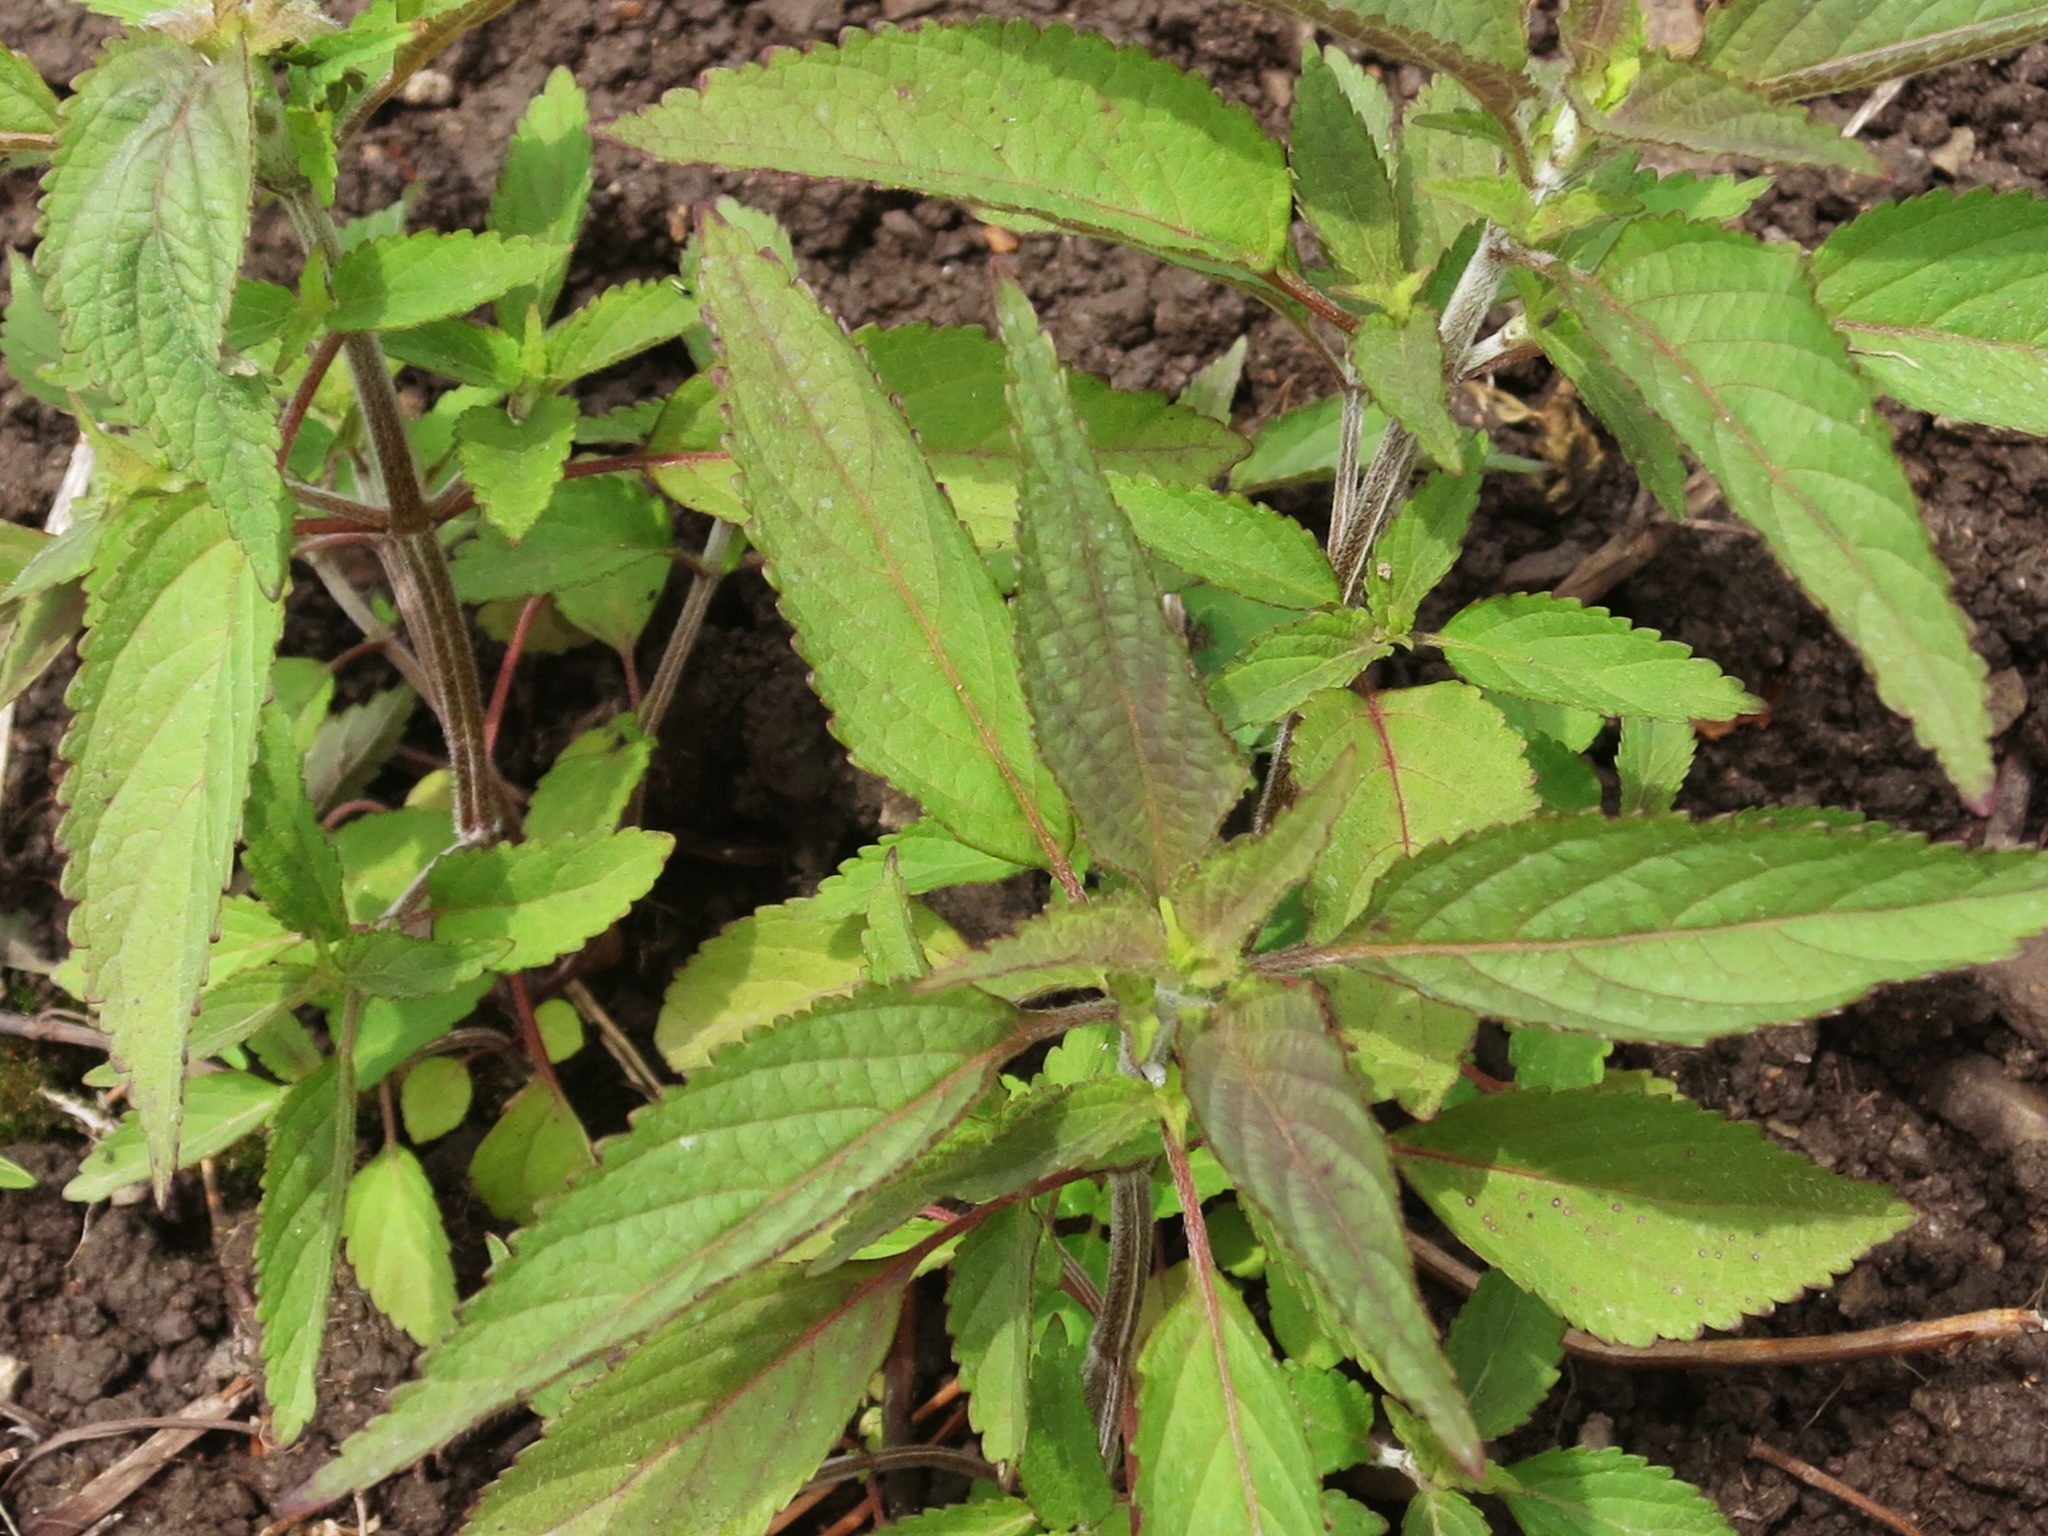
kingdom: Plantae
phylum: Tracheophyta
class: Magnoliopsida
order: Lamiales
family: Lamiaceae
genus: Elsholtzia
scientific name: Elsholtzia ciliata
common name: Ciliate elsholtzia
